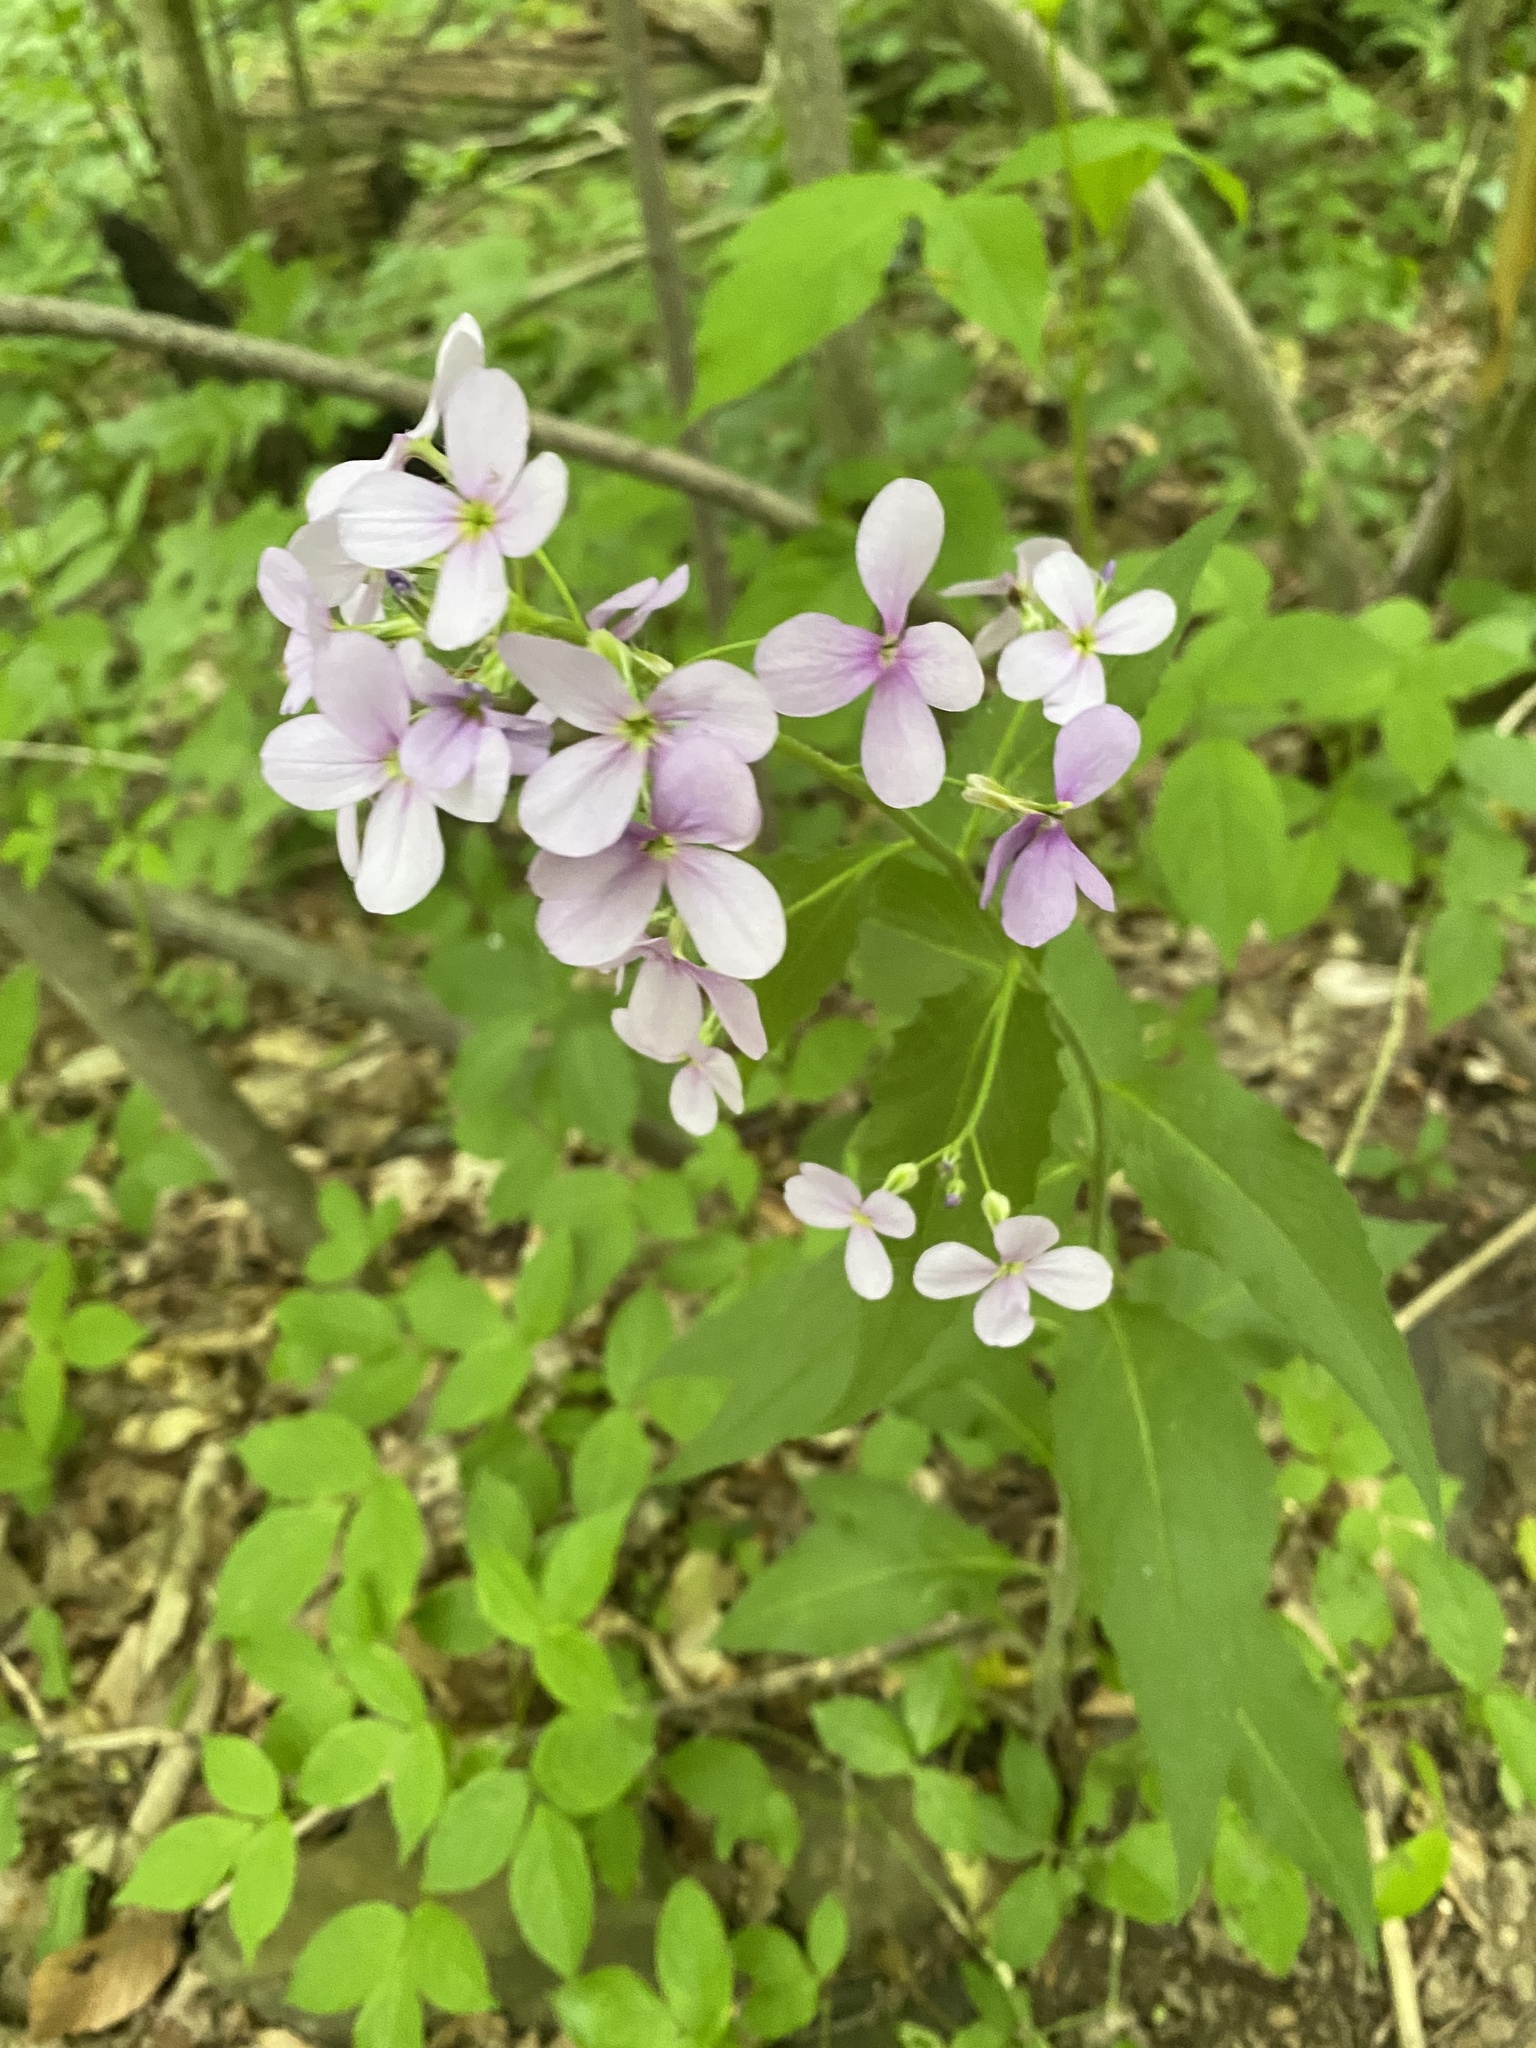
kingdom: Plantae
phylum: Tracheophyta
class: Magnoliopsida
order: Brassicales
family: Brassicaceae
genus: Hesperis
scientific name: Hesperis matronalis
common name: Dame's-violet
